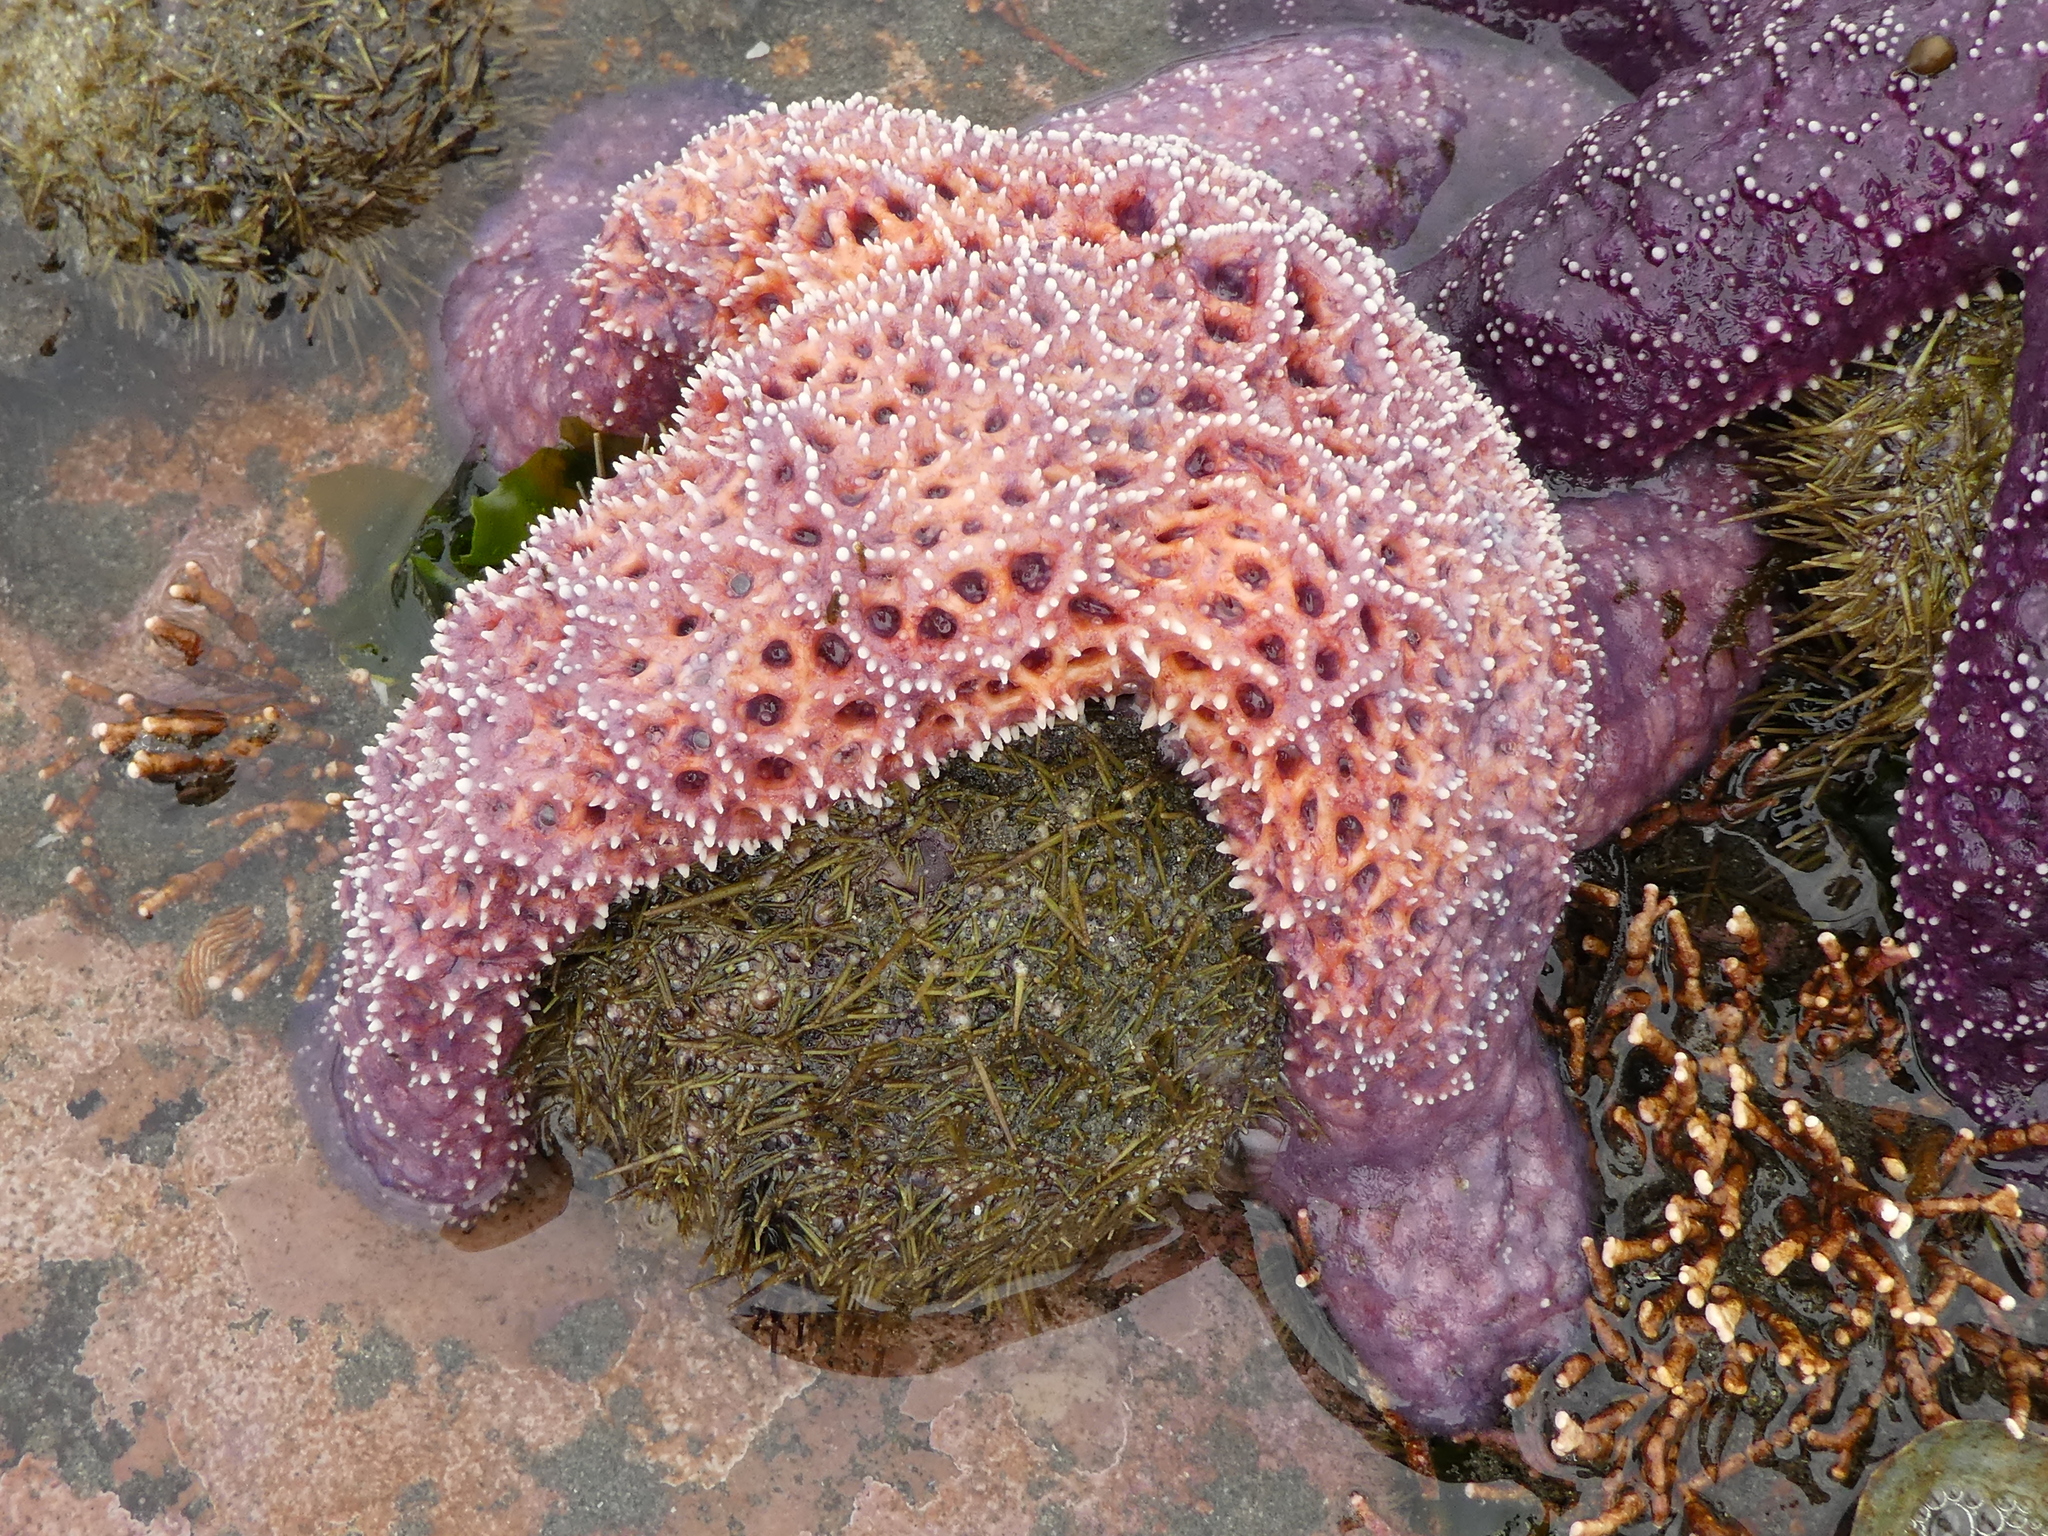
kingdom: Animalia
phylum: Echinodermata
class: Asteroidea
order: Forcipulatida
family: Asteriidae
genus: Pisaster
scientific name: Pisaster ochraceus
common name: Ochre stars
